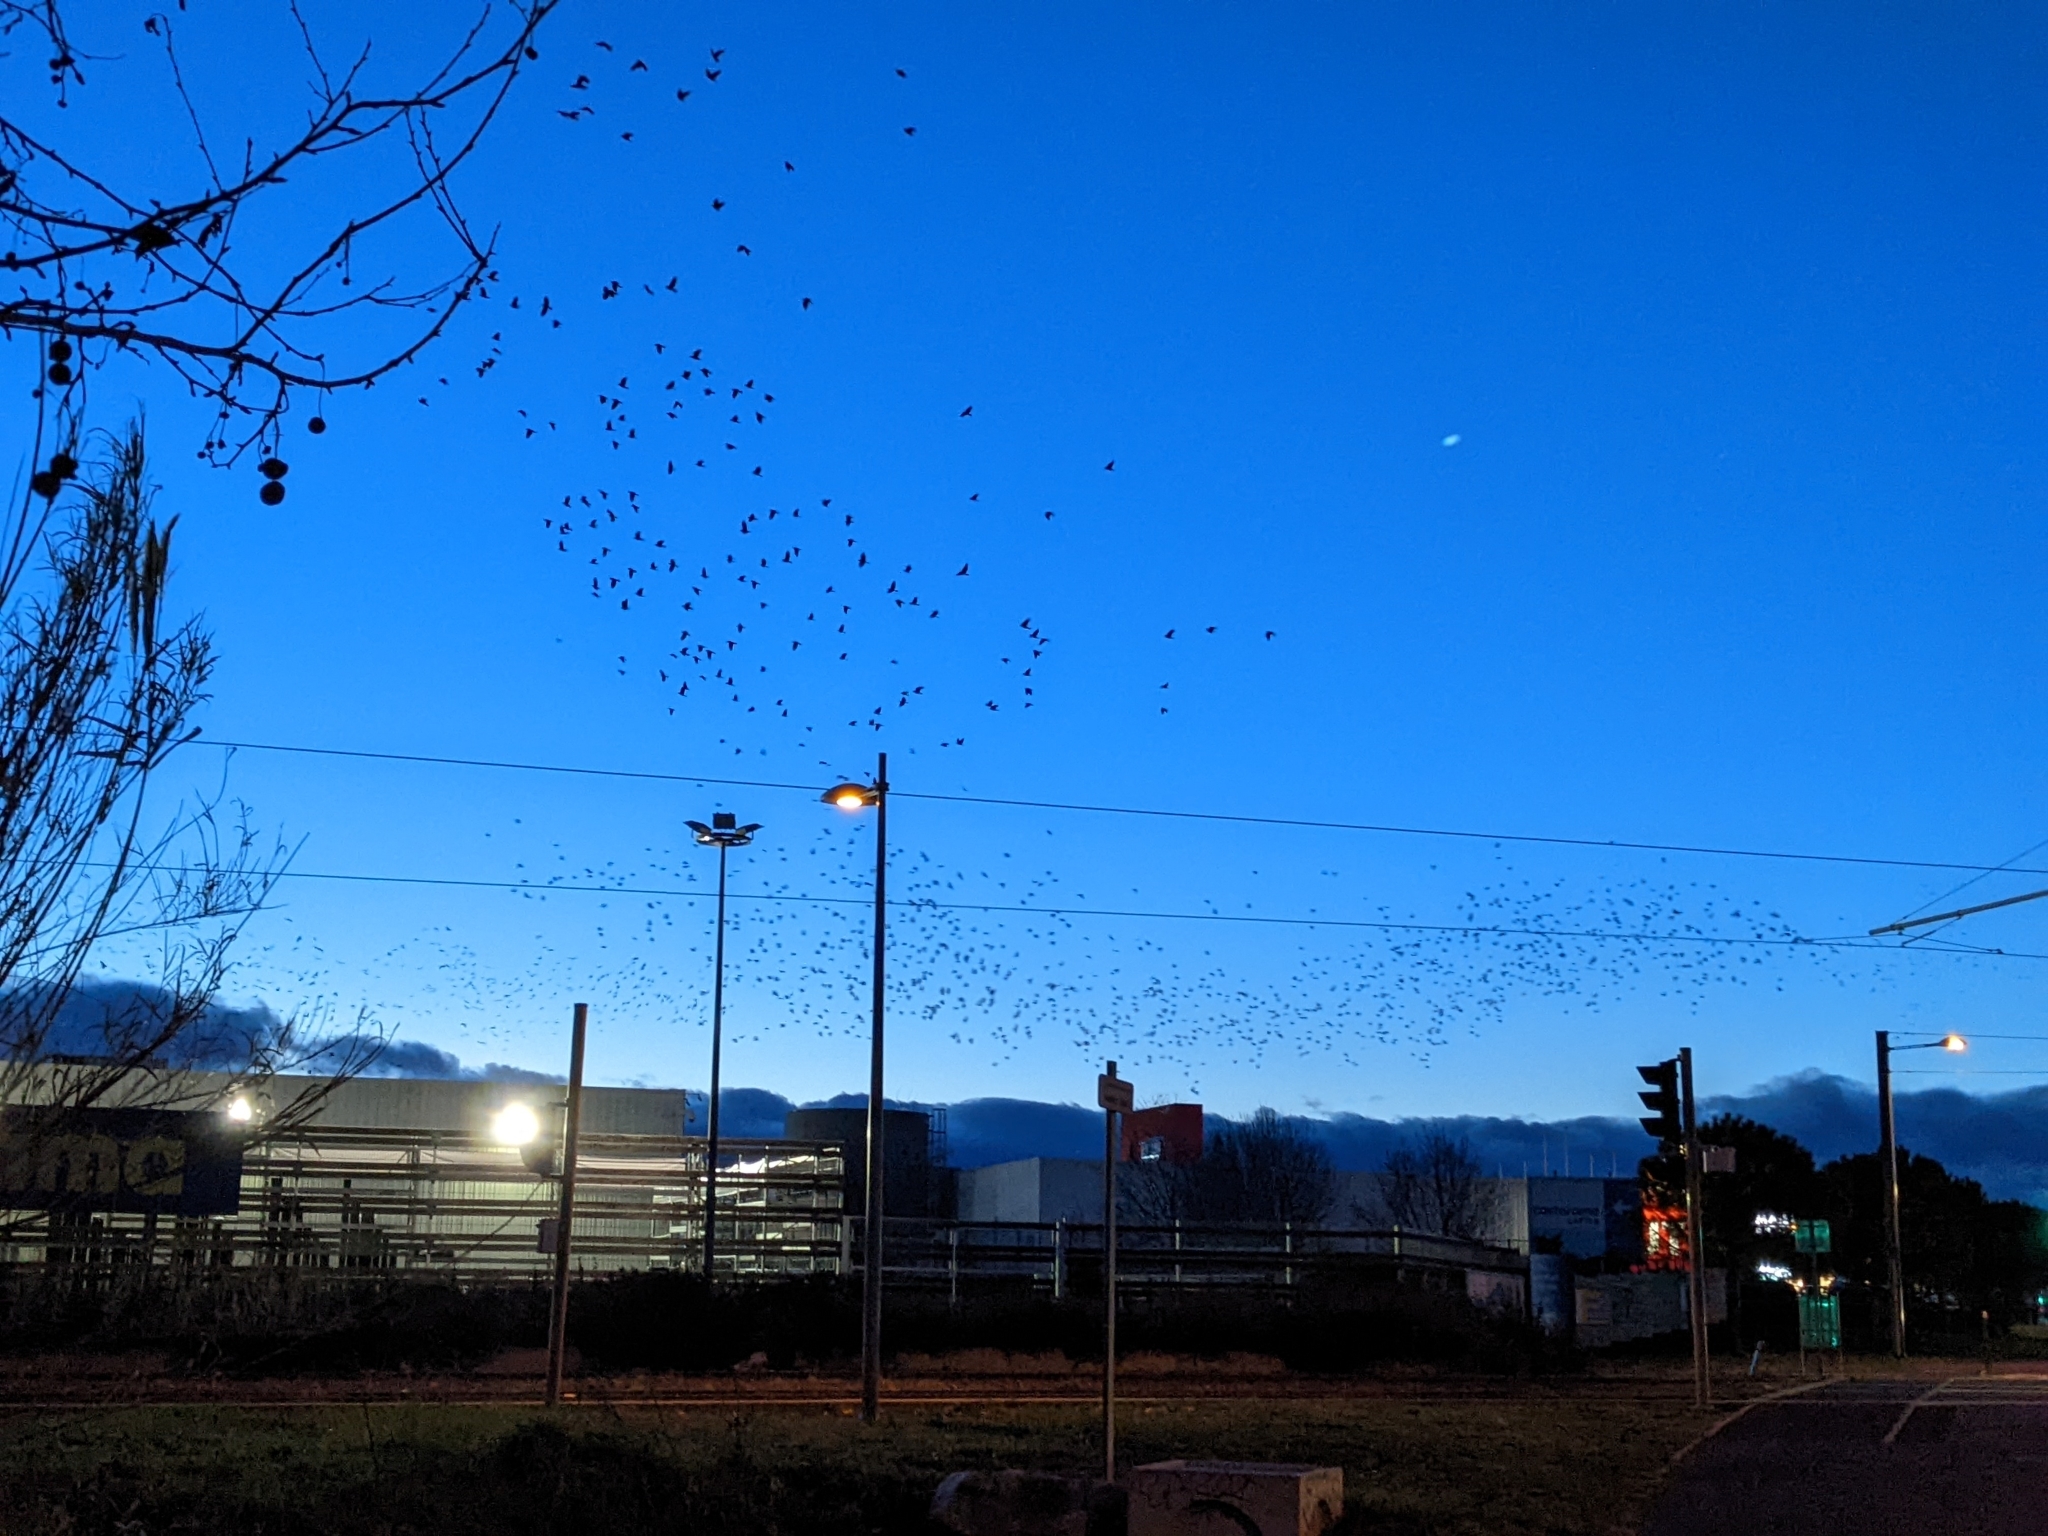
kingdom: Animalia
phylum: Chordata
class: Aves
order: Passeriformes
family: Sturnidae
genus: Sturnus
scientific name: Sturnus vulgaris
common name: Common starling
